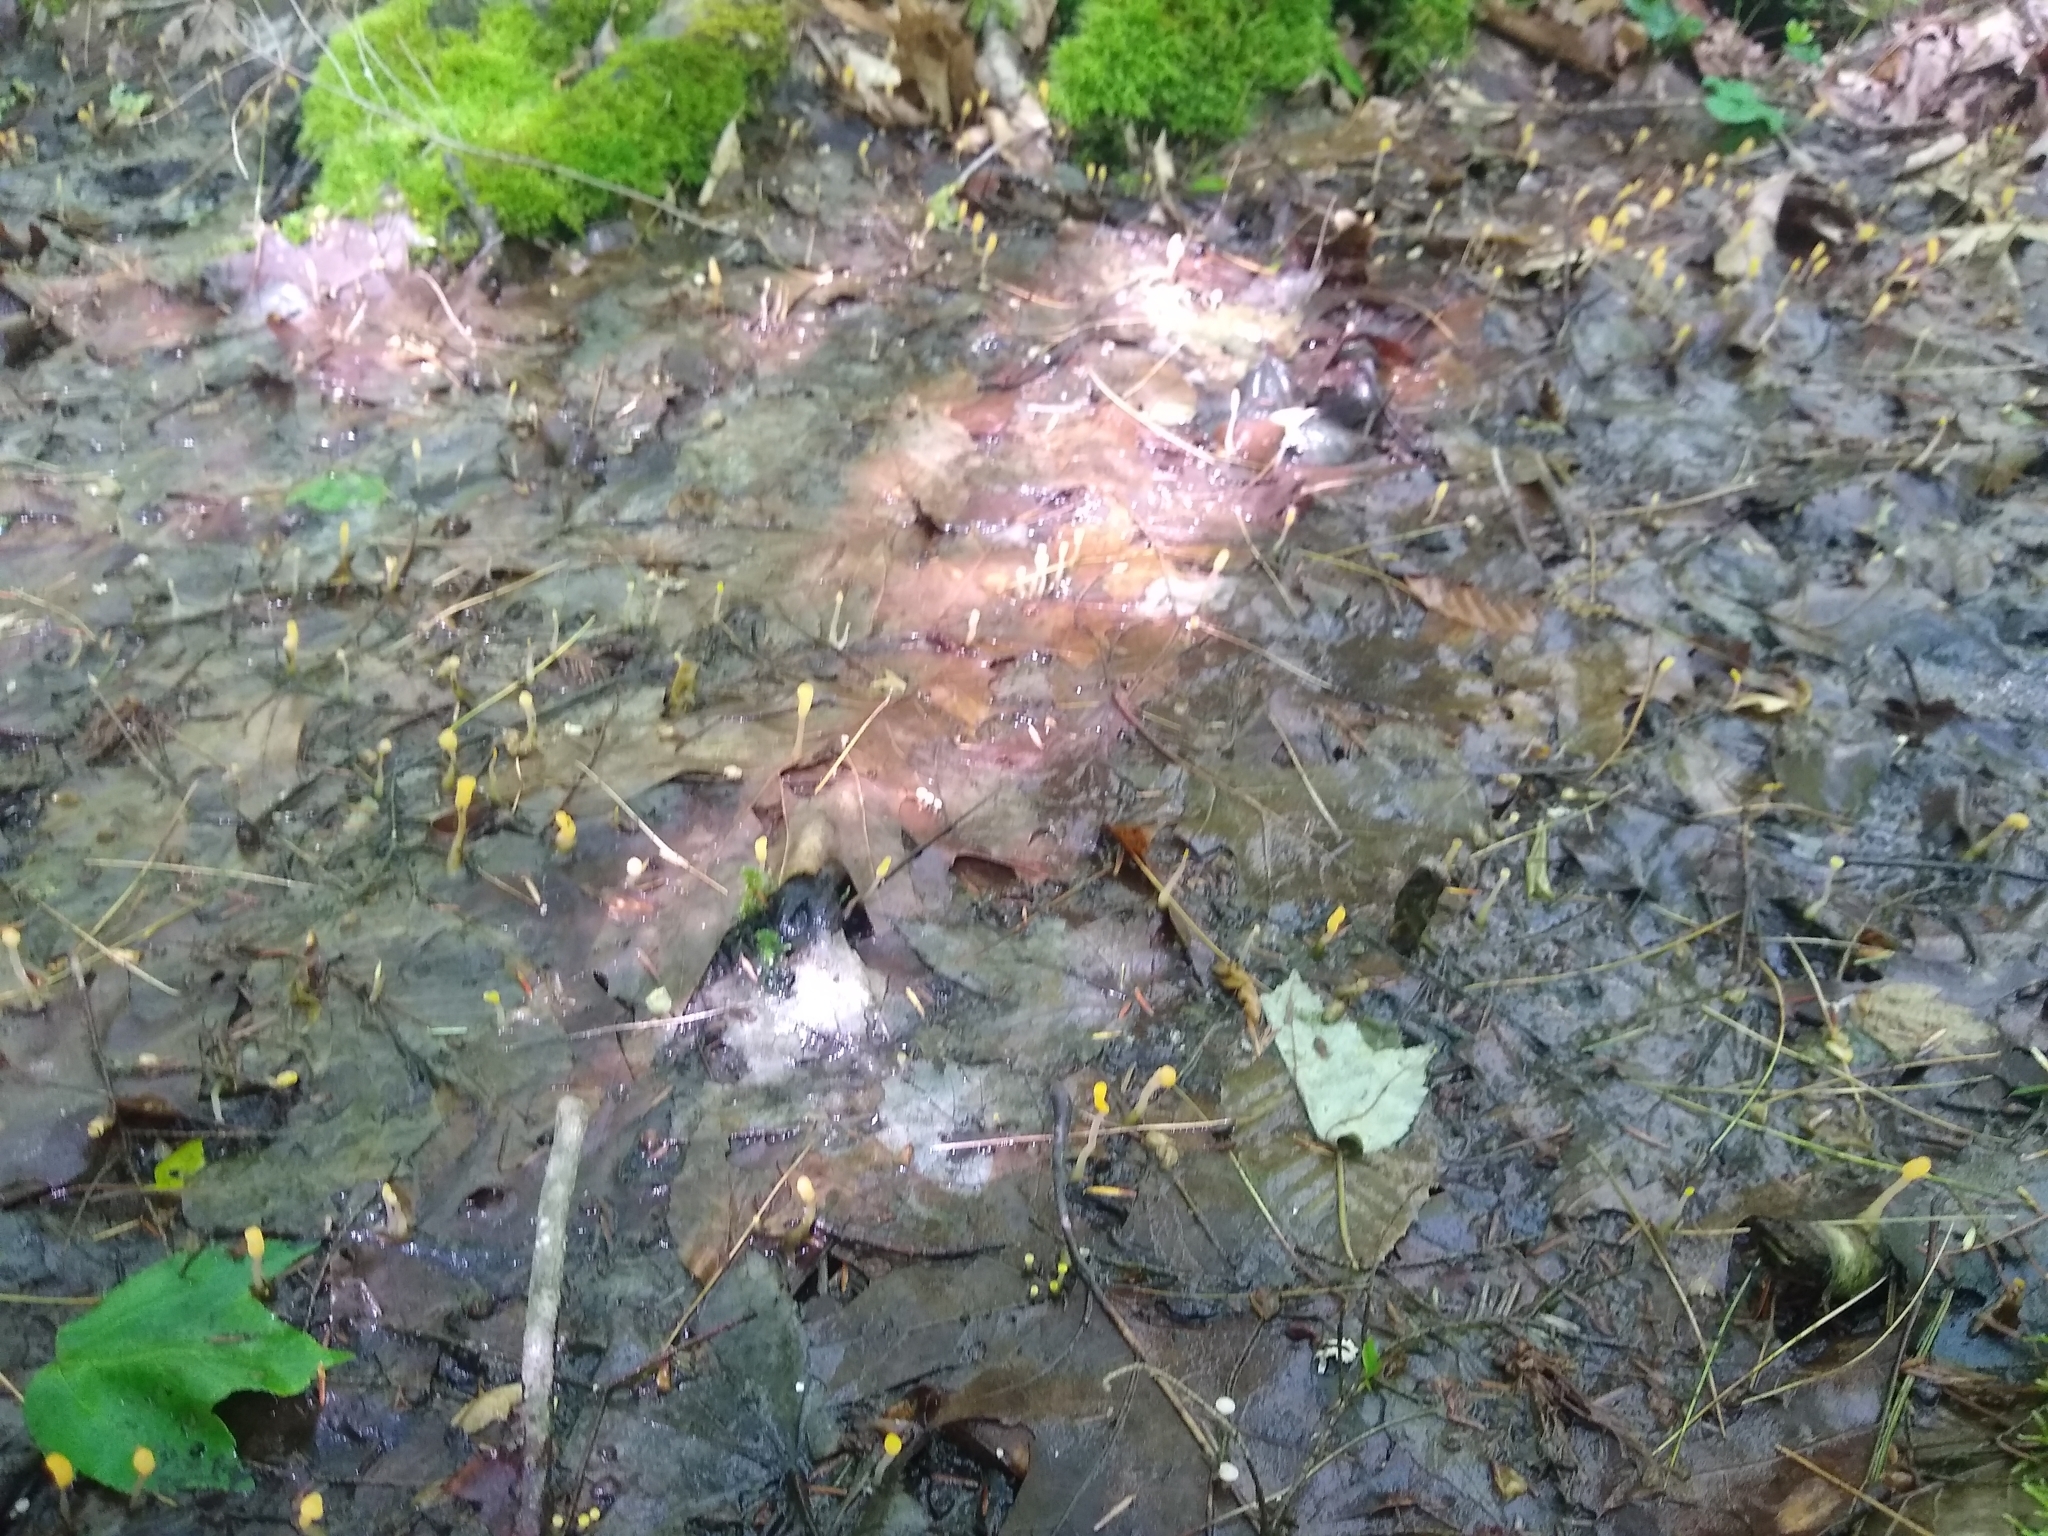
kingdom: Fungi
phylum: Ascomycota
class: Leotiomycetes
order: Helotiales
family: Sclerotiniaceae
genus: Mitrula
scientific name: Mitrula elegans
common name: Swamp beacon
